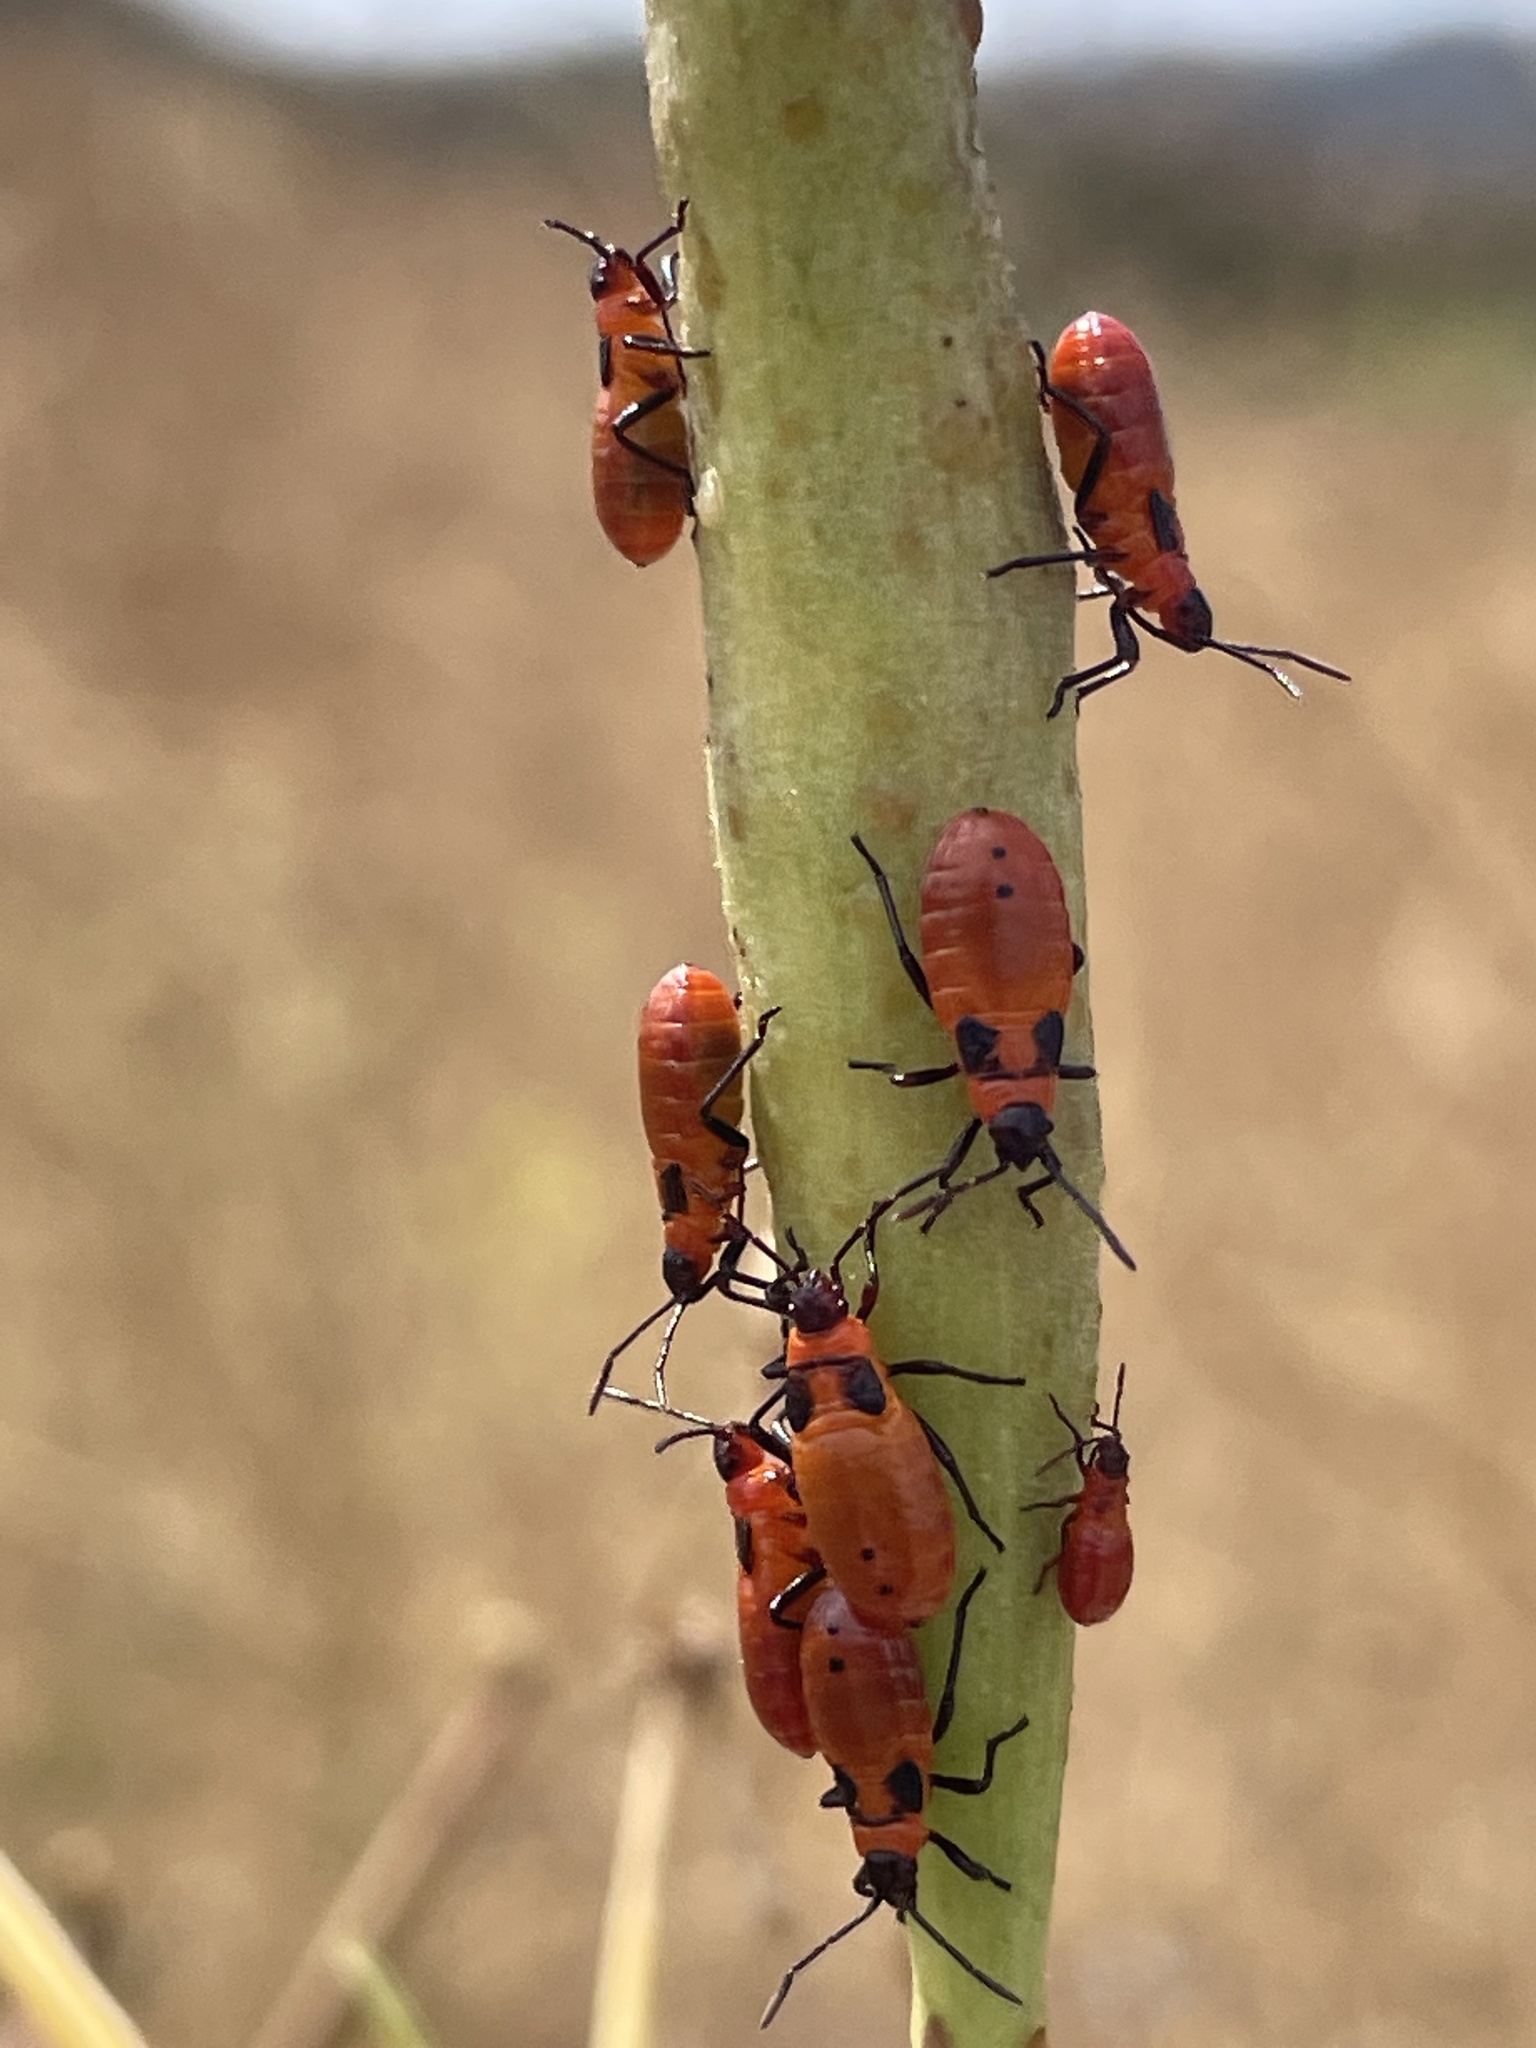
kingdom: Animalia
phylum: Arthropoda
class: Insecta
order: Hemiptera
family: Lygaeidae
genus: Oncopeltus
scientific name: Oncopeltus fasciatus
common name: Large milkweed bug
